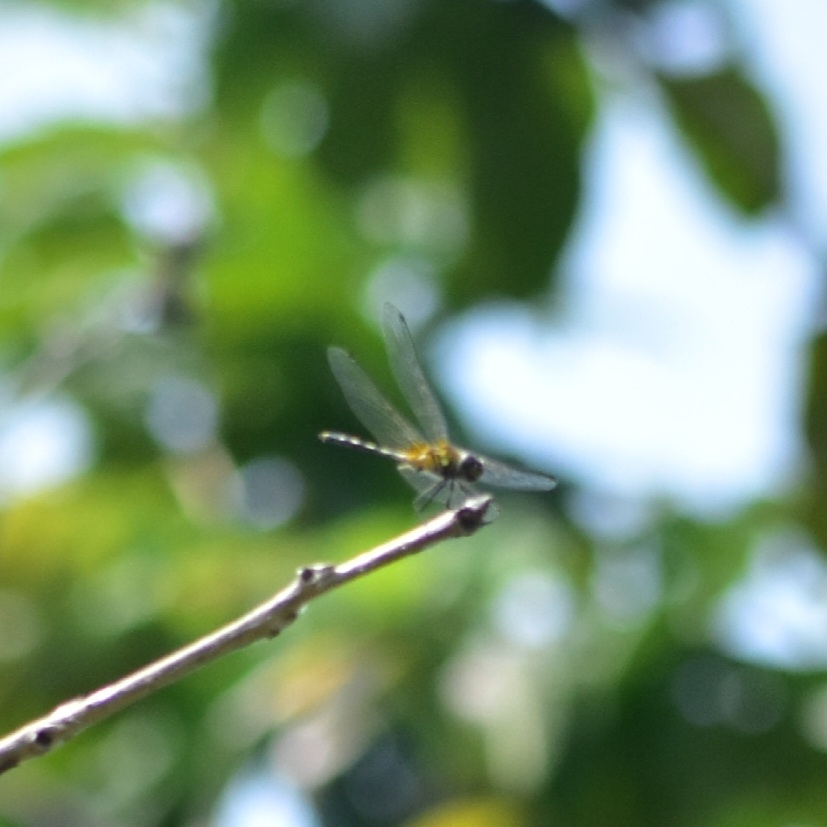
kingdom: Animalia
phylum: Arthropoda
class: Insecta
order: Odonata
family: Libellulidae
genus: Trithemis
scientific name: Trithemis pallidinervis
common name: Dancing dropwing
